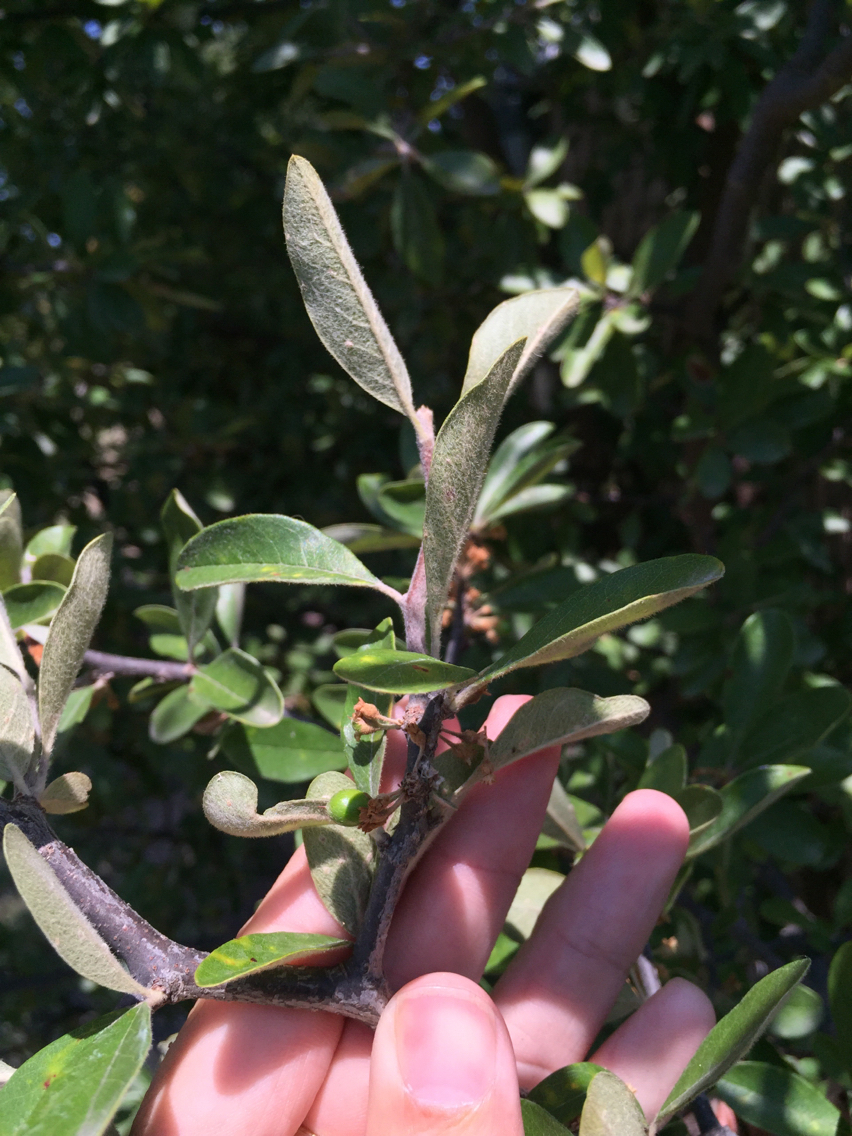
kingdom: Plantae
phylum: Tracheophyta
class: Magnoliopsida
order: Ericales
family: Sapotaceae
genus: Sideroxylon
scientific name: Sideroxylon lanuginosum
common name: Chittamwood
